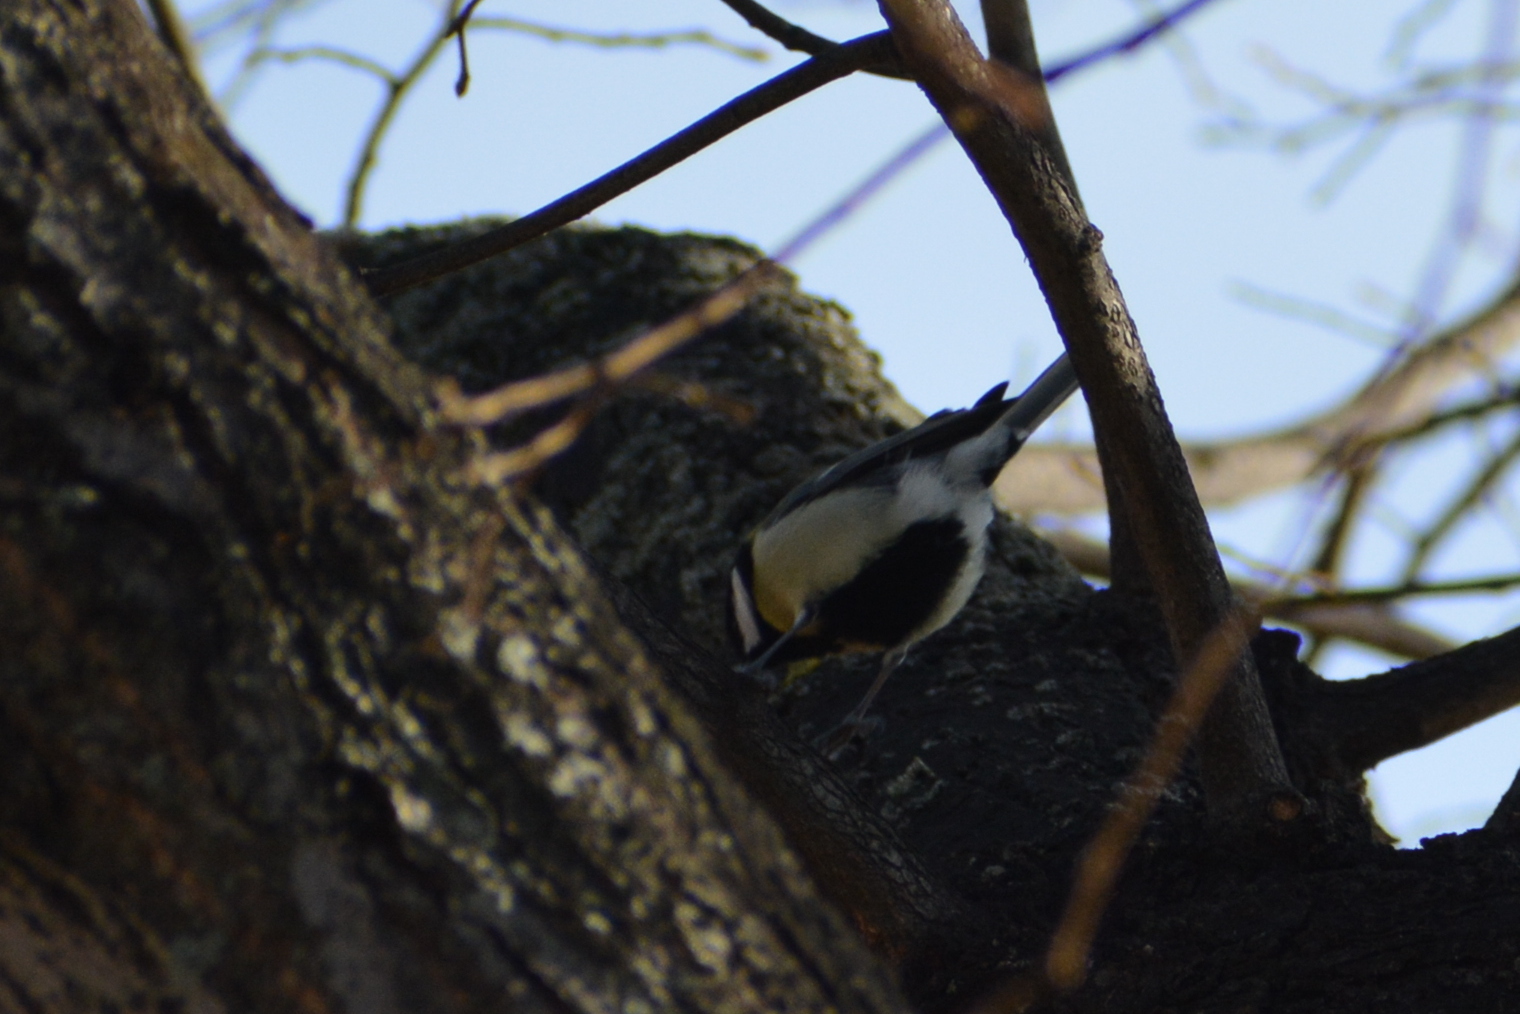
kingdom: Animalia
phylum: Chordata
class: Aves
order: Passeriformes
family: Paridae
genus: Parus
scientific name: Parus major
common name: Great tit
